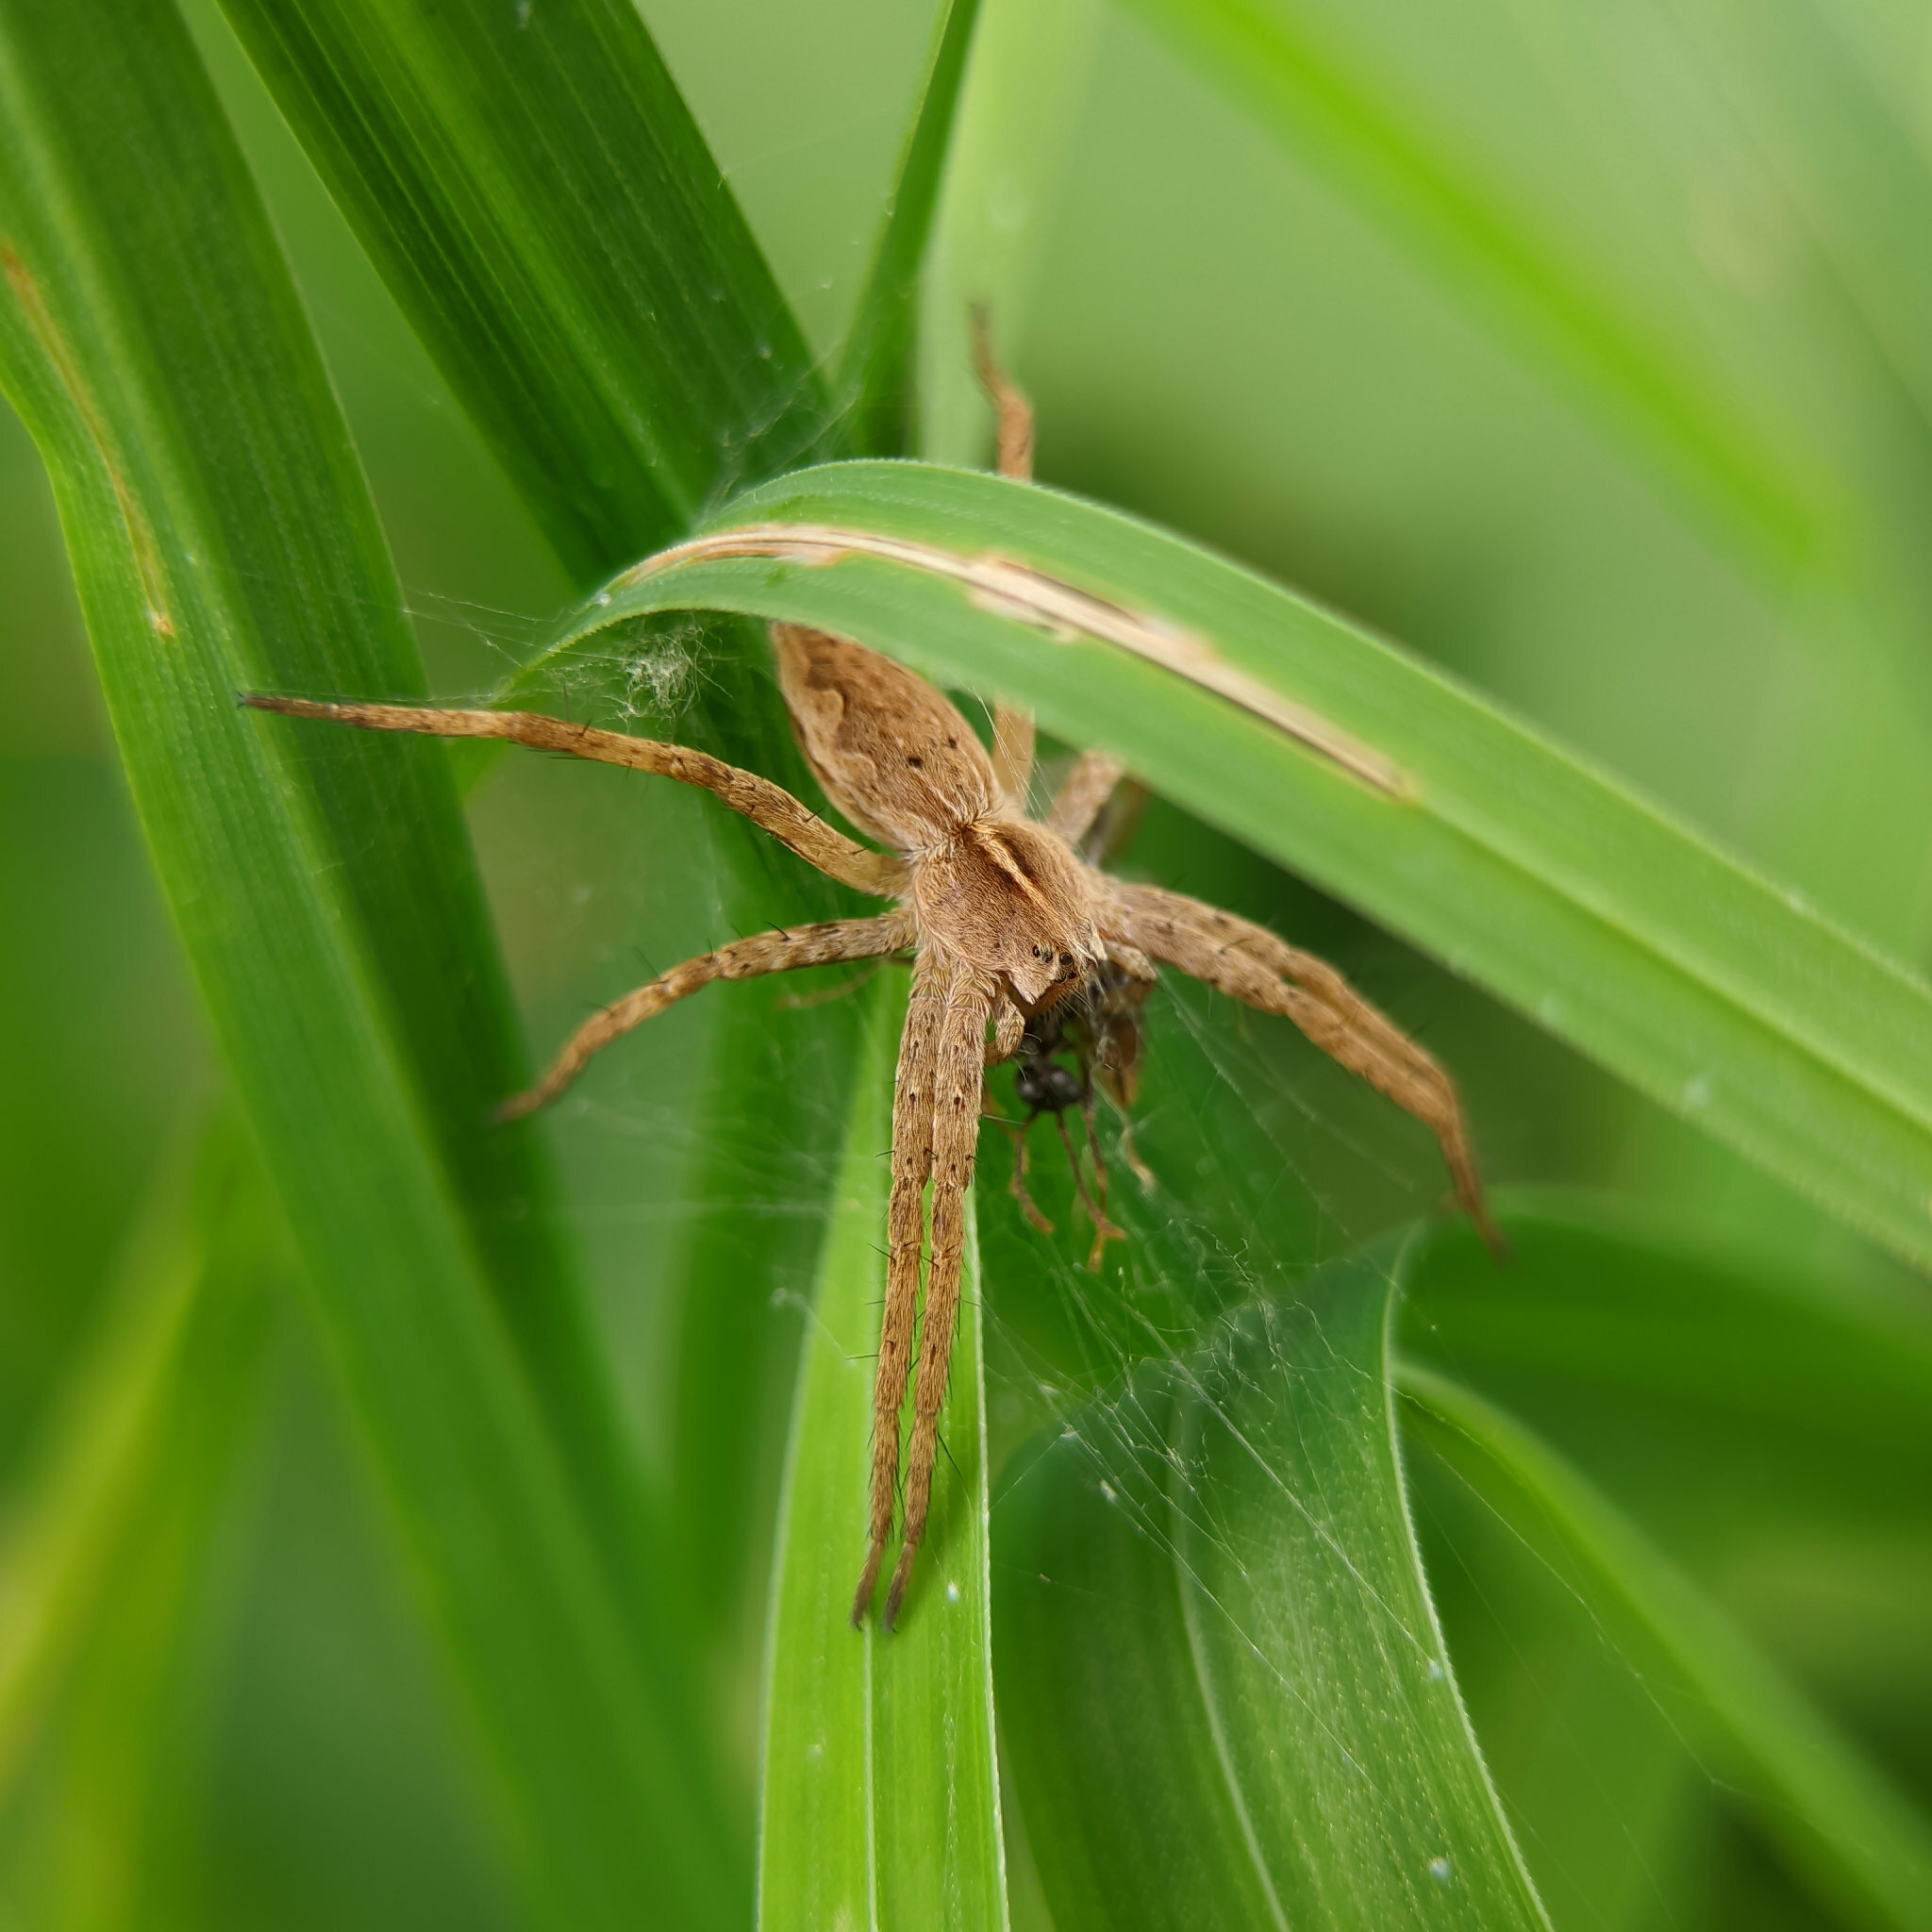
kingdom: Animalia
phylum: Arthropoda
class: Arachnida
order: Araneae
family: Pisauridae
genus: Pisaura
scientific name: Pisaura mirabilis
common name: Tent spider
